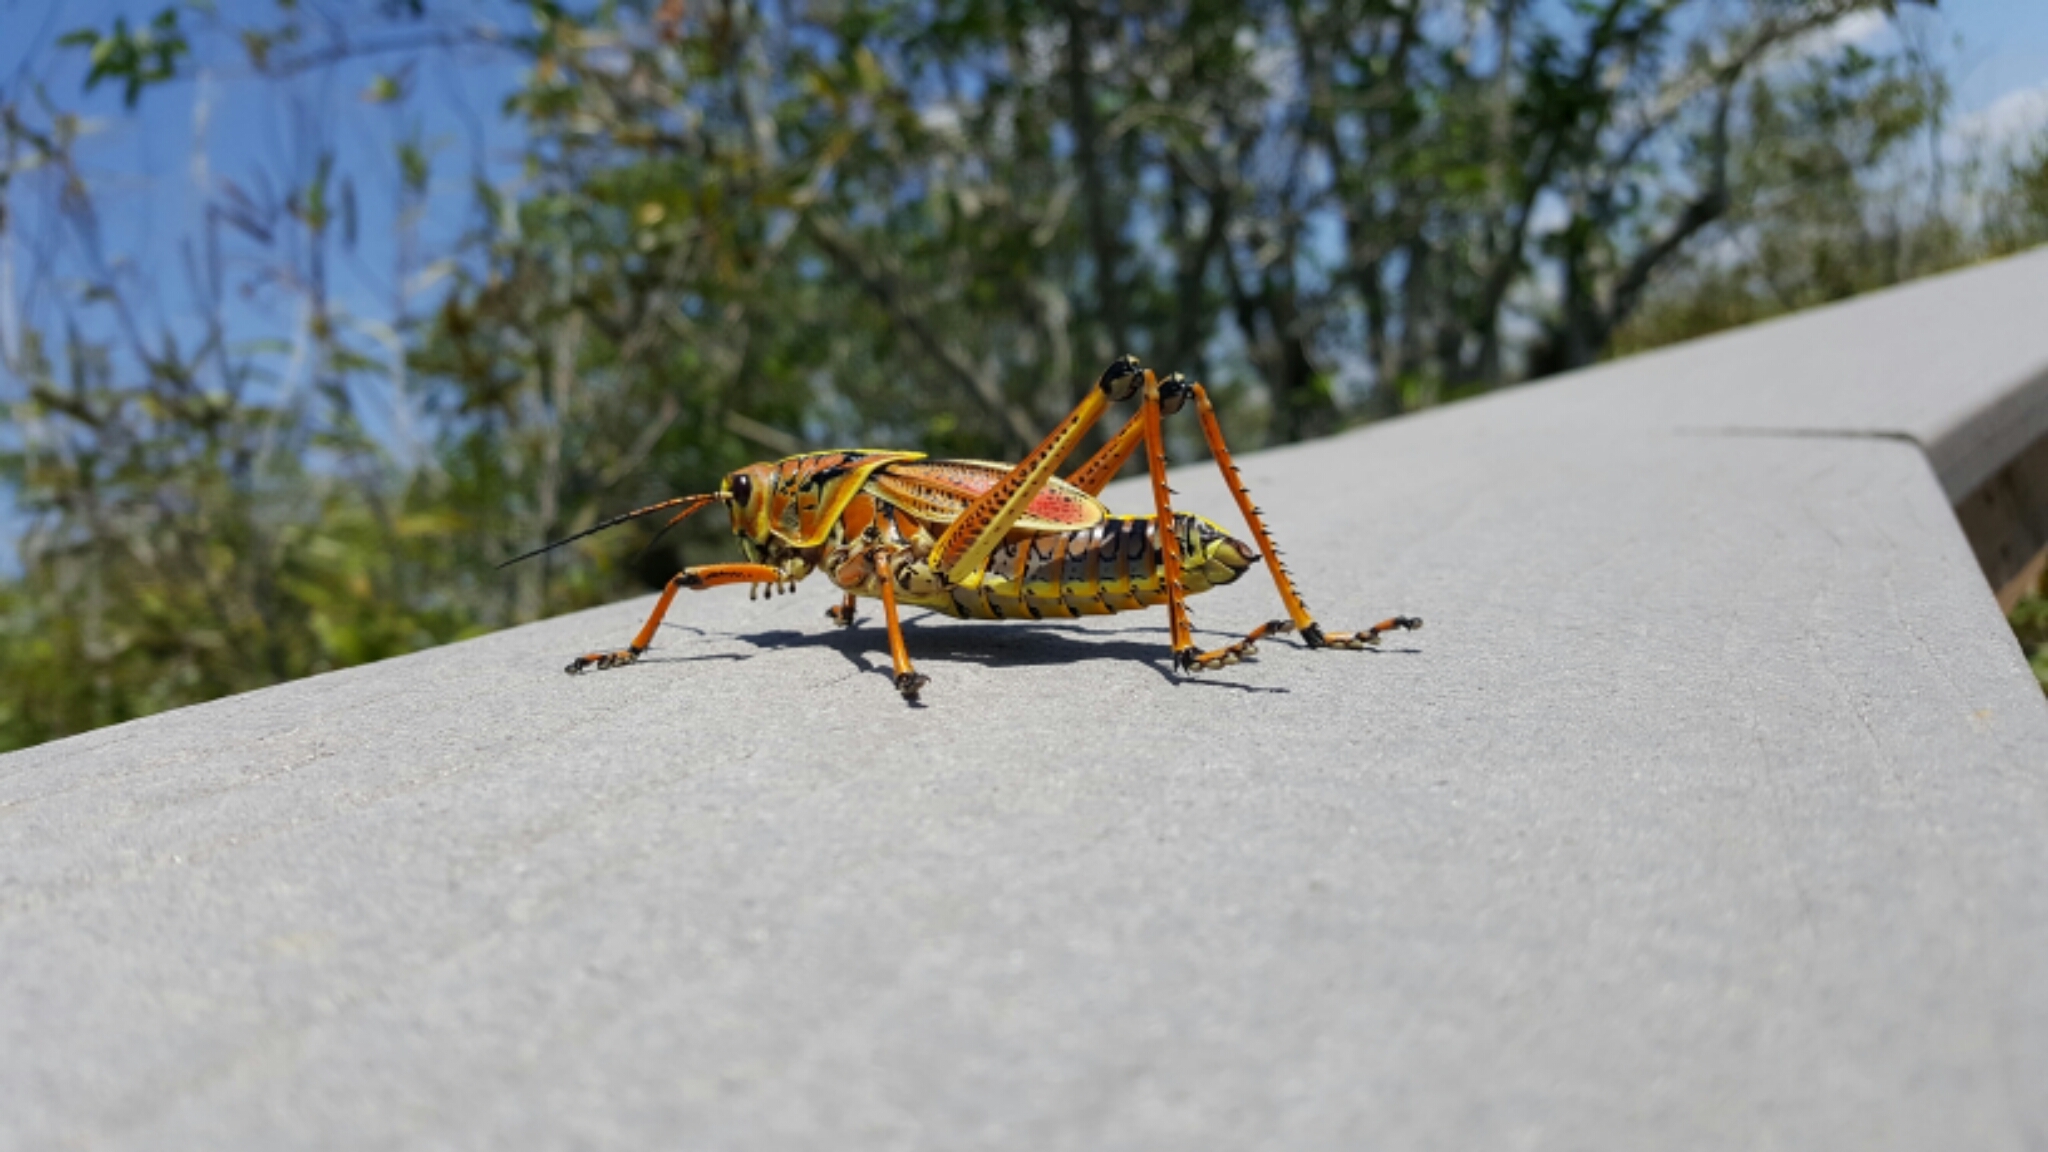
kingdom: Animalia
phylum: Arthropoda
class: Insecta
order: Orthoptera
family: Romaleidae
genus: Romalea
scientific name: Romalea microptera
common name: Eastern lubber grasshopper
